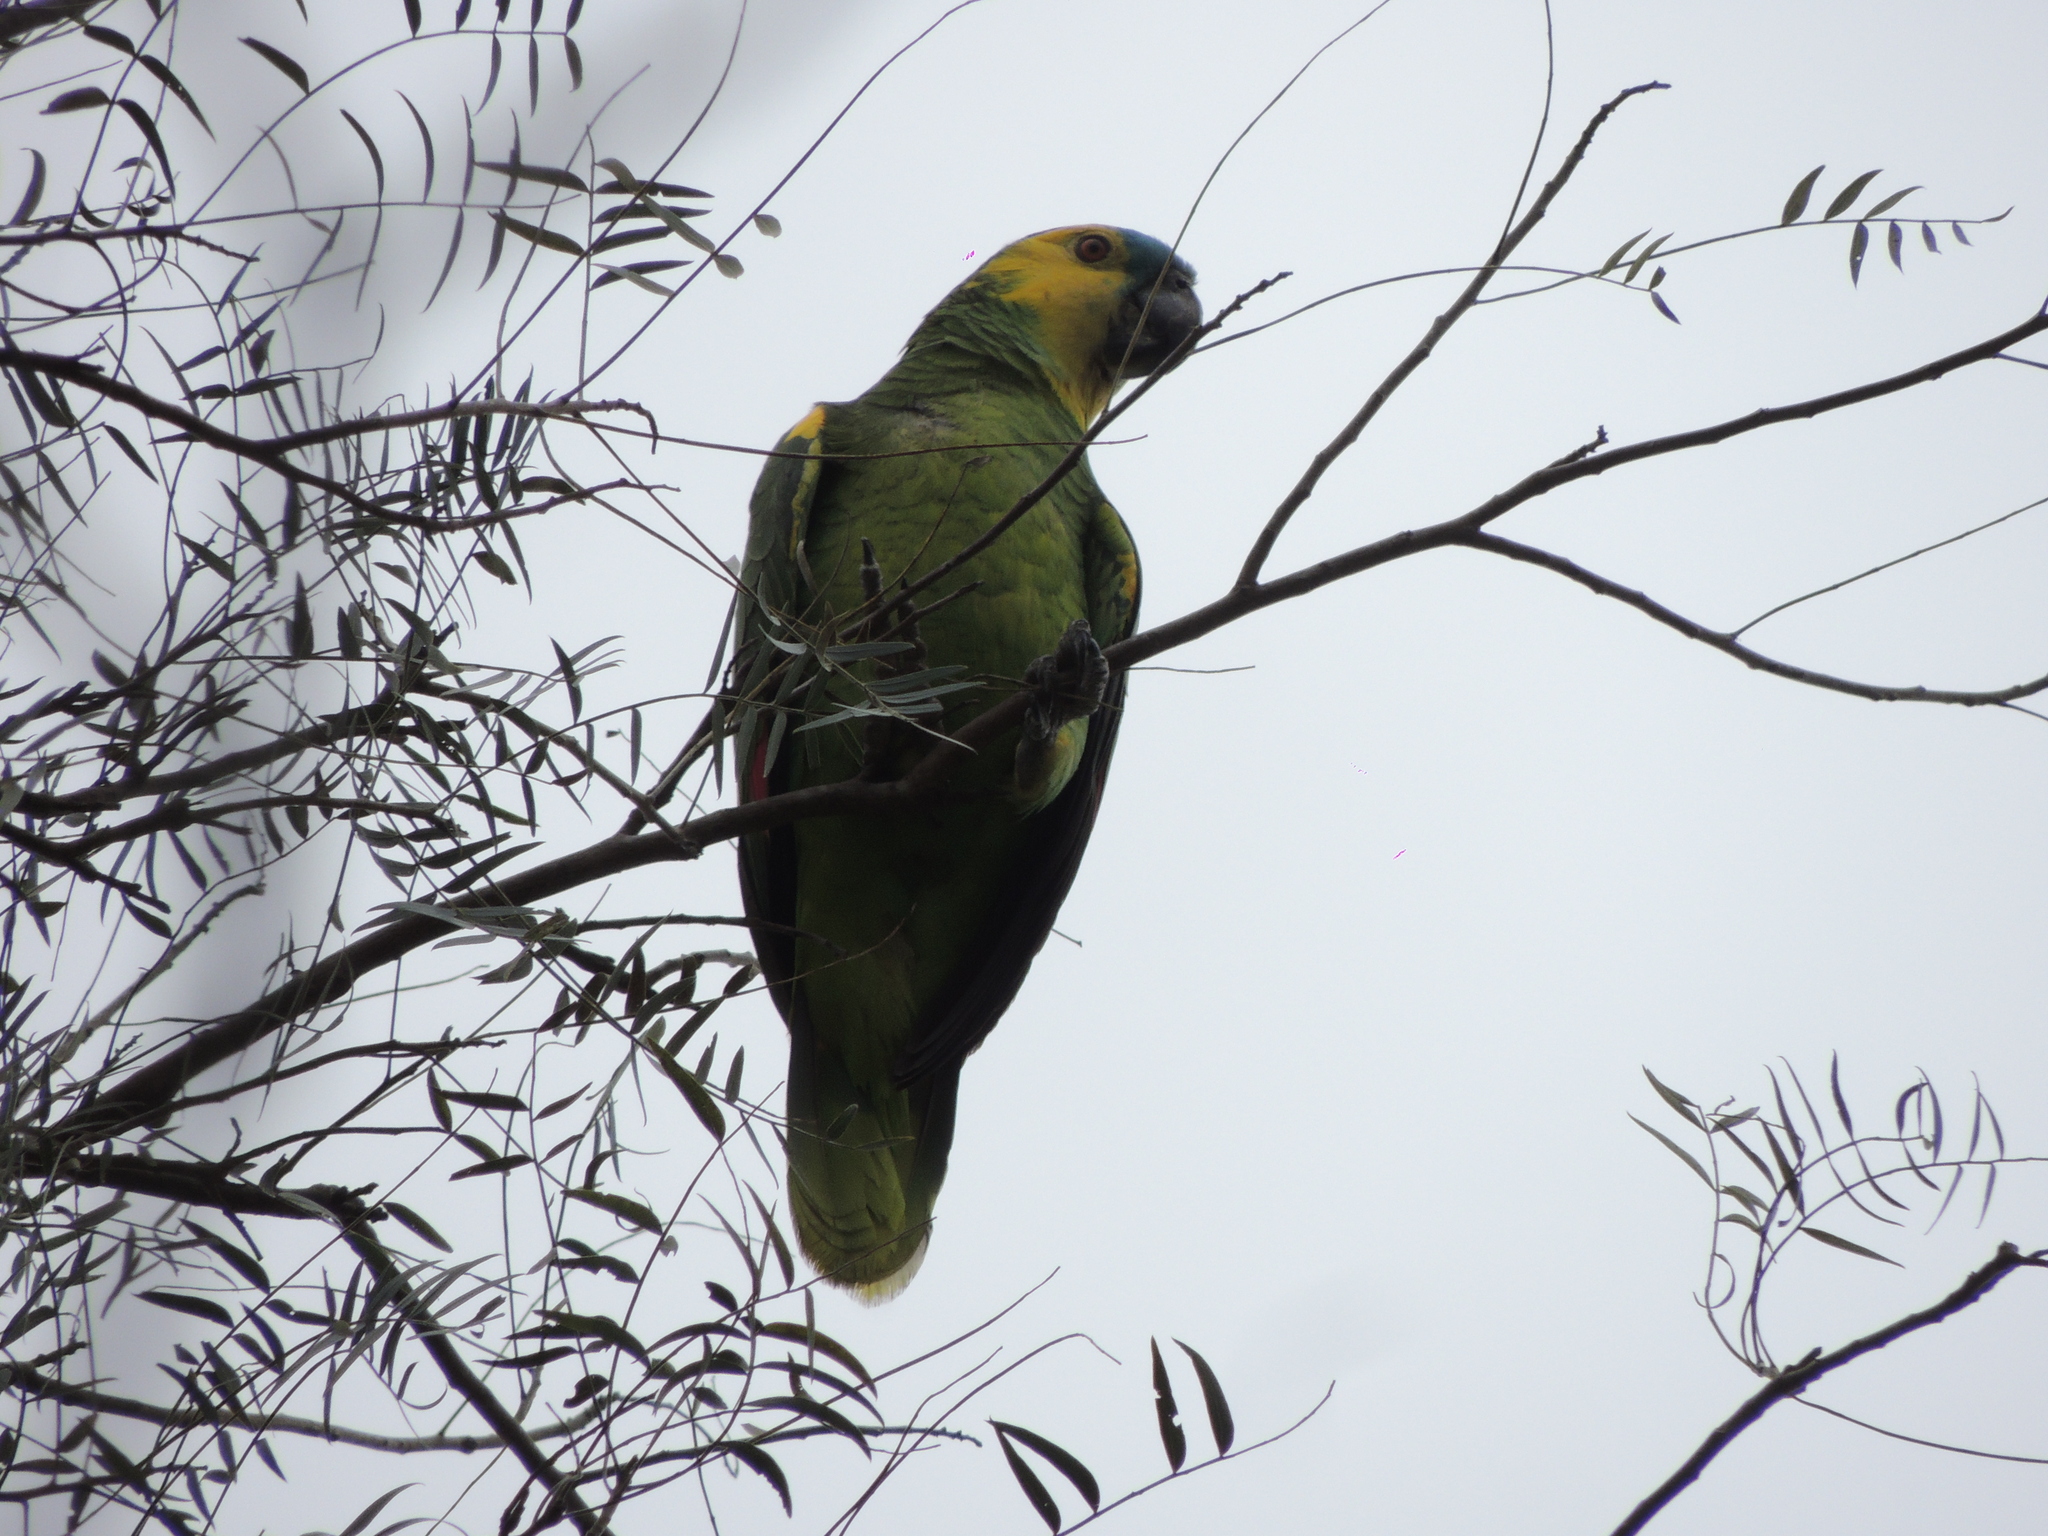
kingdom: Animalia
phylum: Chordata
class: Aves
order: Psittaciformes
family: Psittacidae
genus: Amazona
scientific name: Amazona aestiva
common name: Turquoise-fronted amazon
